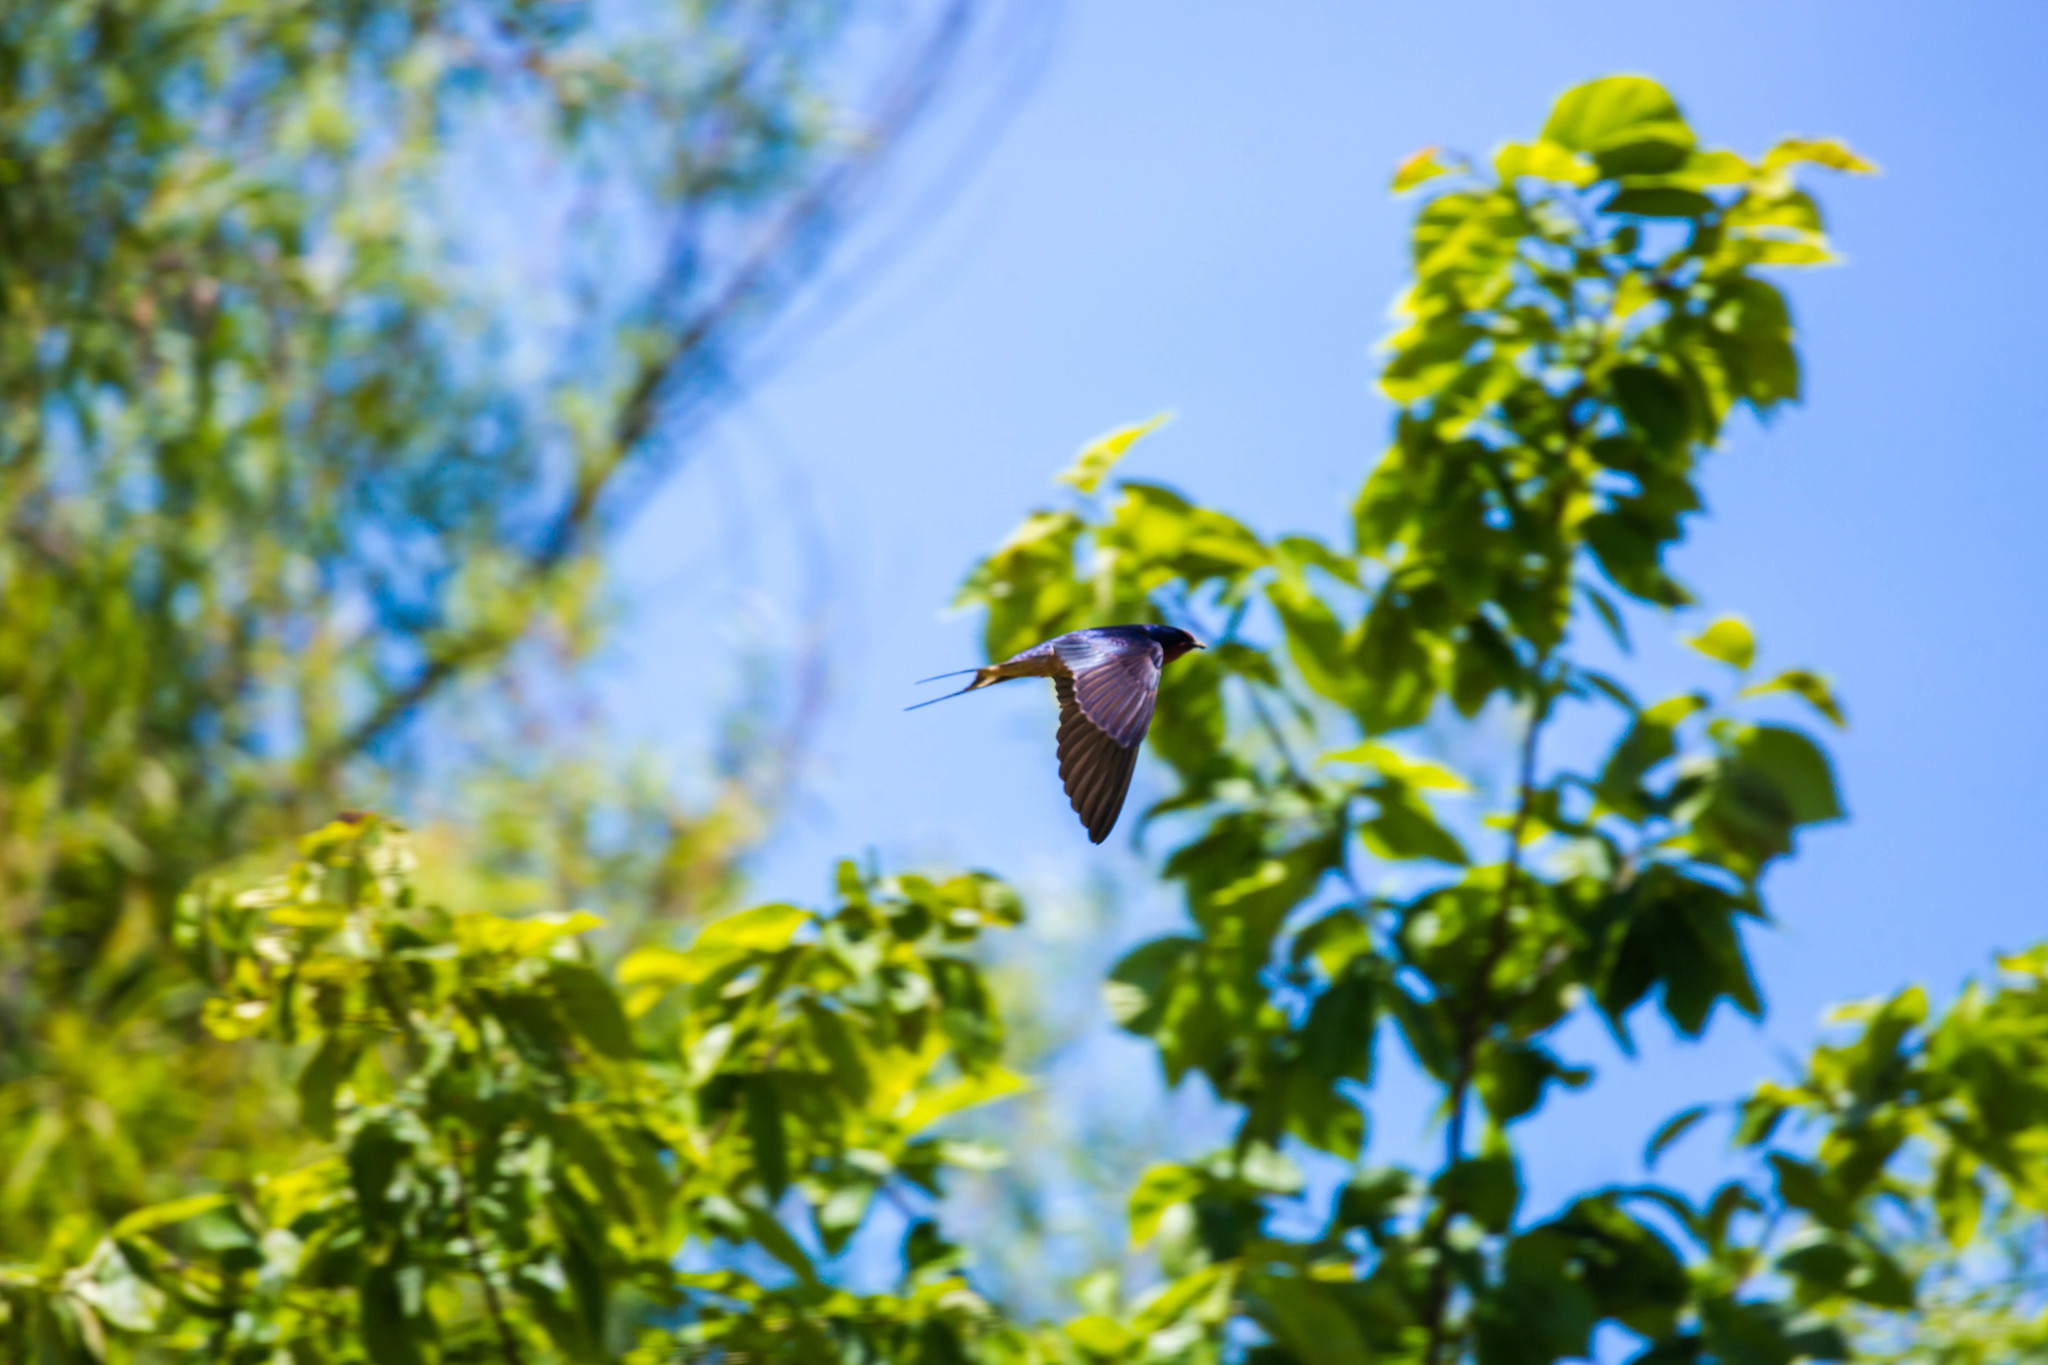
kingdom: Animalia
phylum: Chordata
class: Aves
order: Passeriformes
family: Hirundinidae
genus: Hirundo
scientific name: Hirundo rustica
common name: Barn swallow
